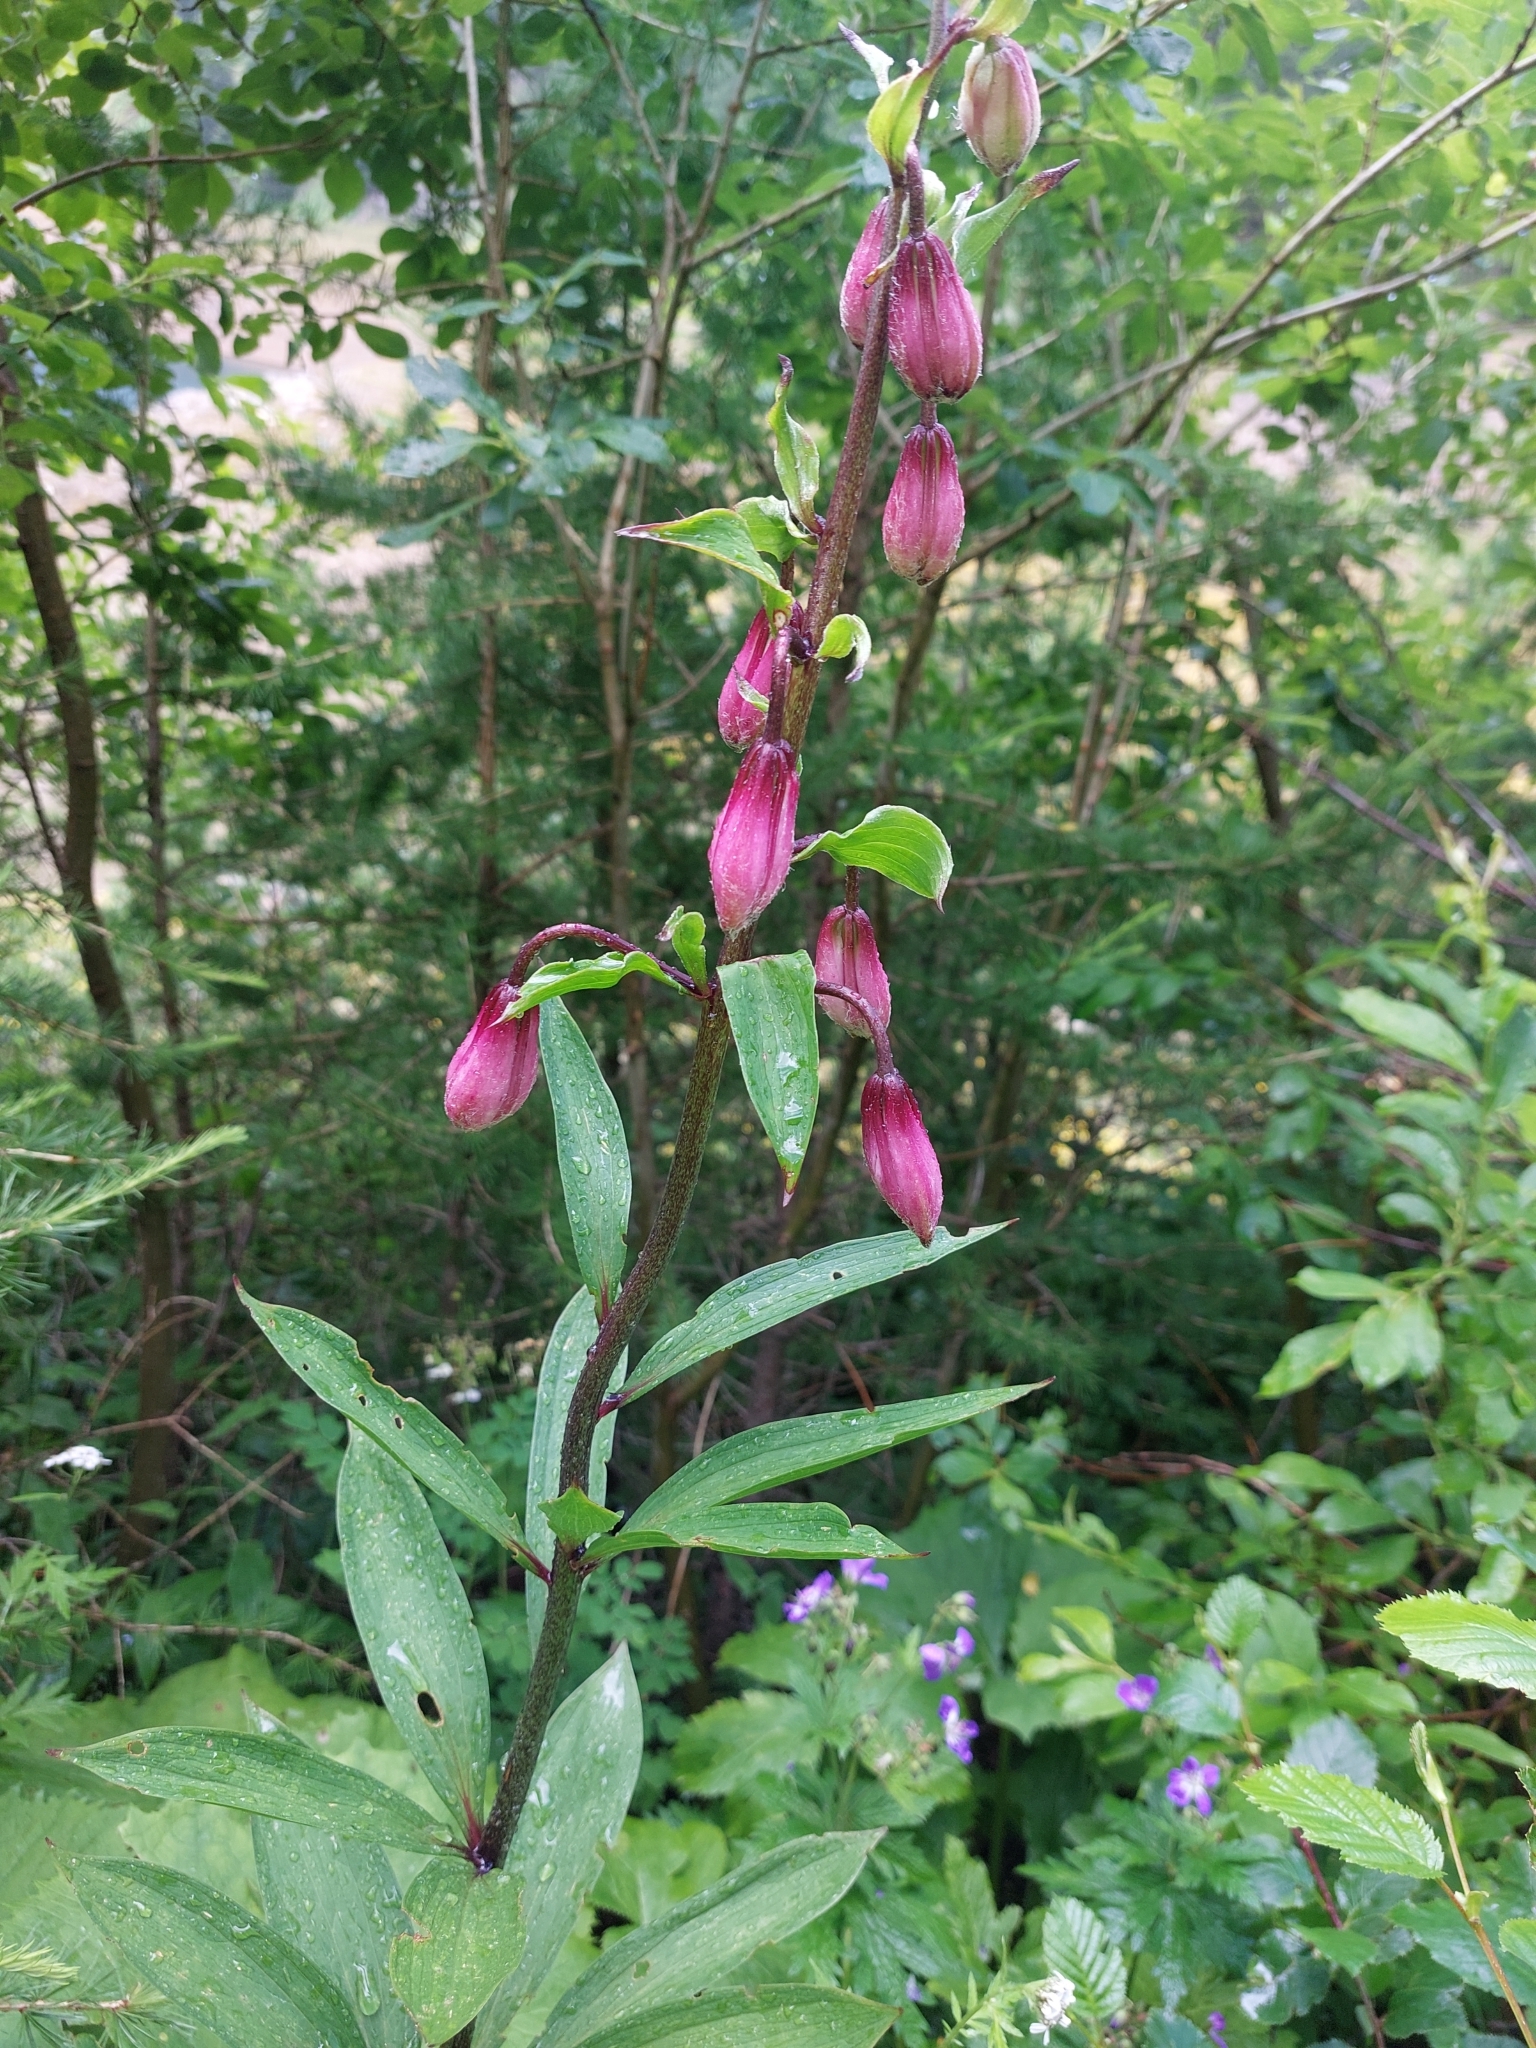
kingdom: Plantae
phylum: Tracheophyta
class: Liliopsida
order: Liliales
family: Liliaceae
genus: Lilium
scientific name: Lilium martagon
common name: Martagon lily
